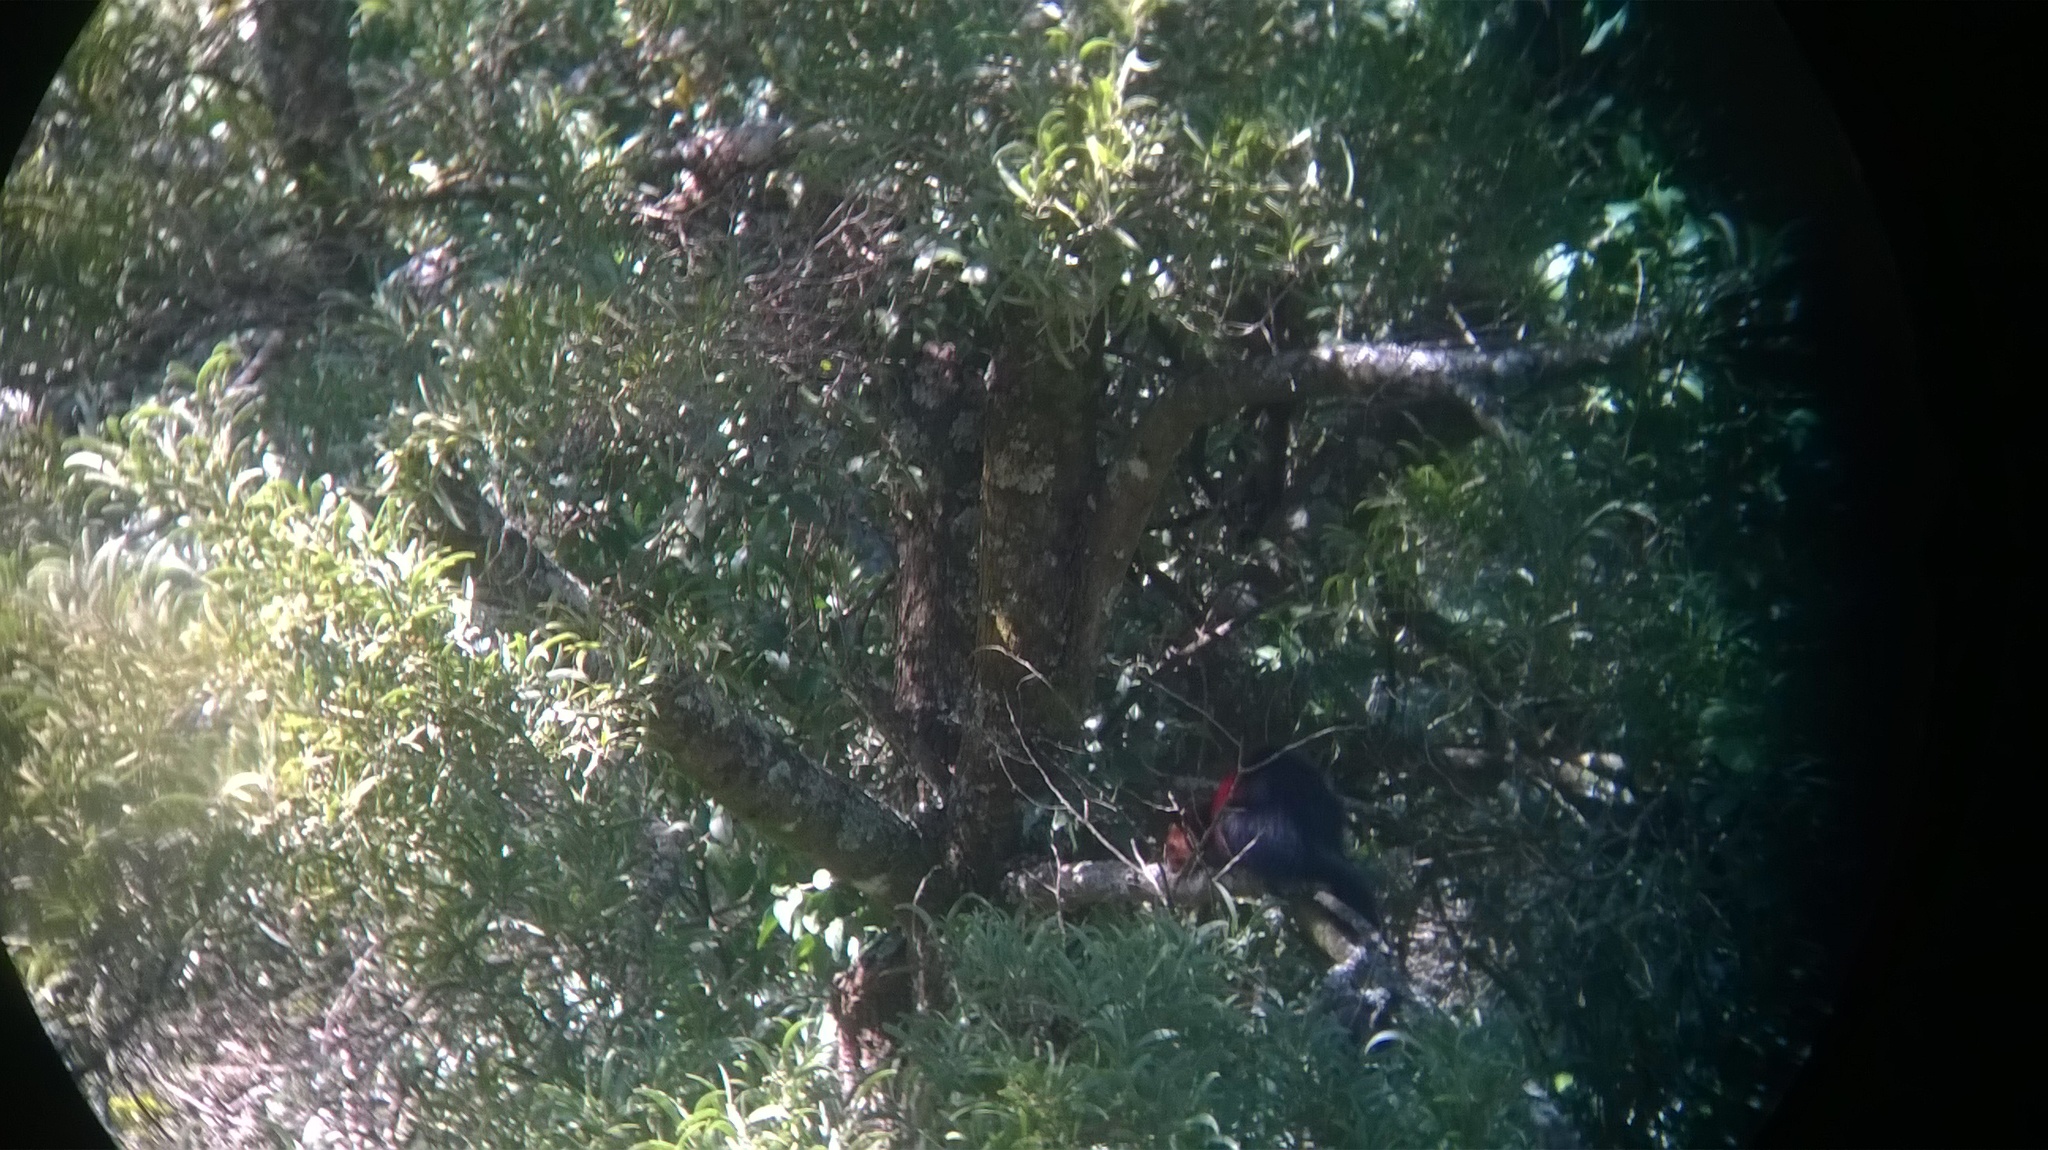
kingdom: Animalia
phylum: Chordata
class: Mammalia
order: Rodentia
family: Sciuridae
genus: Ratufa
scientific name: Ratufa indica
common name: Indian giant squirrel
